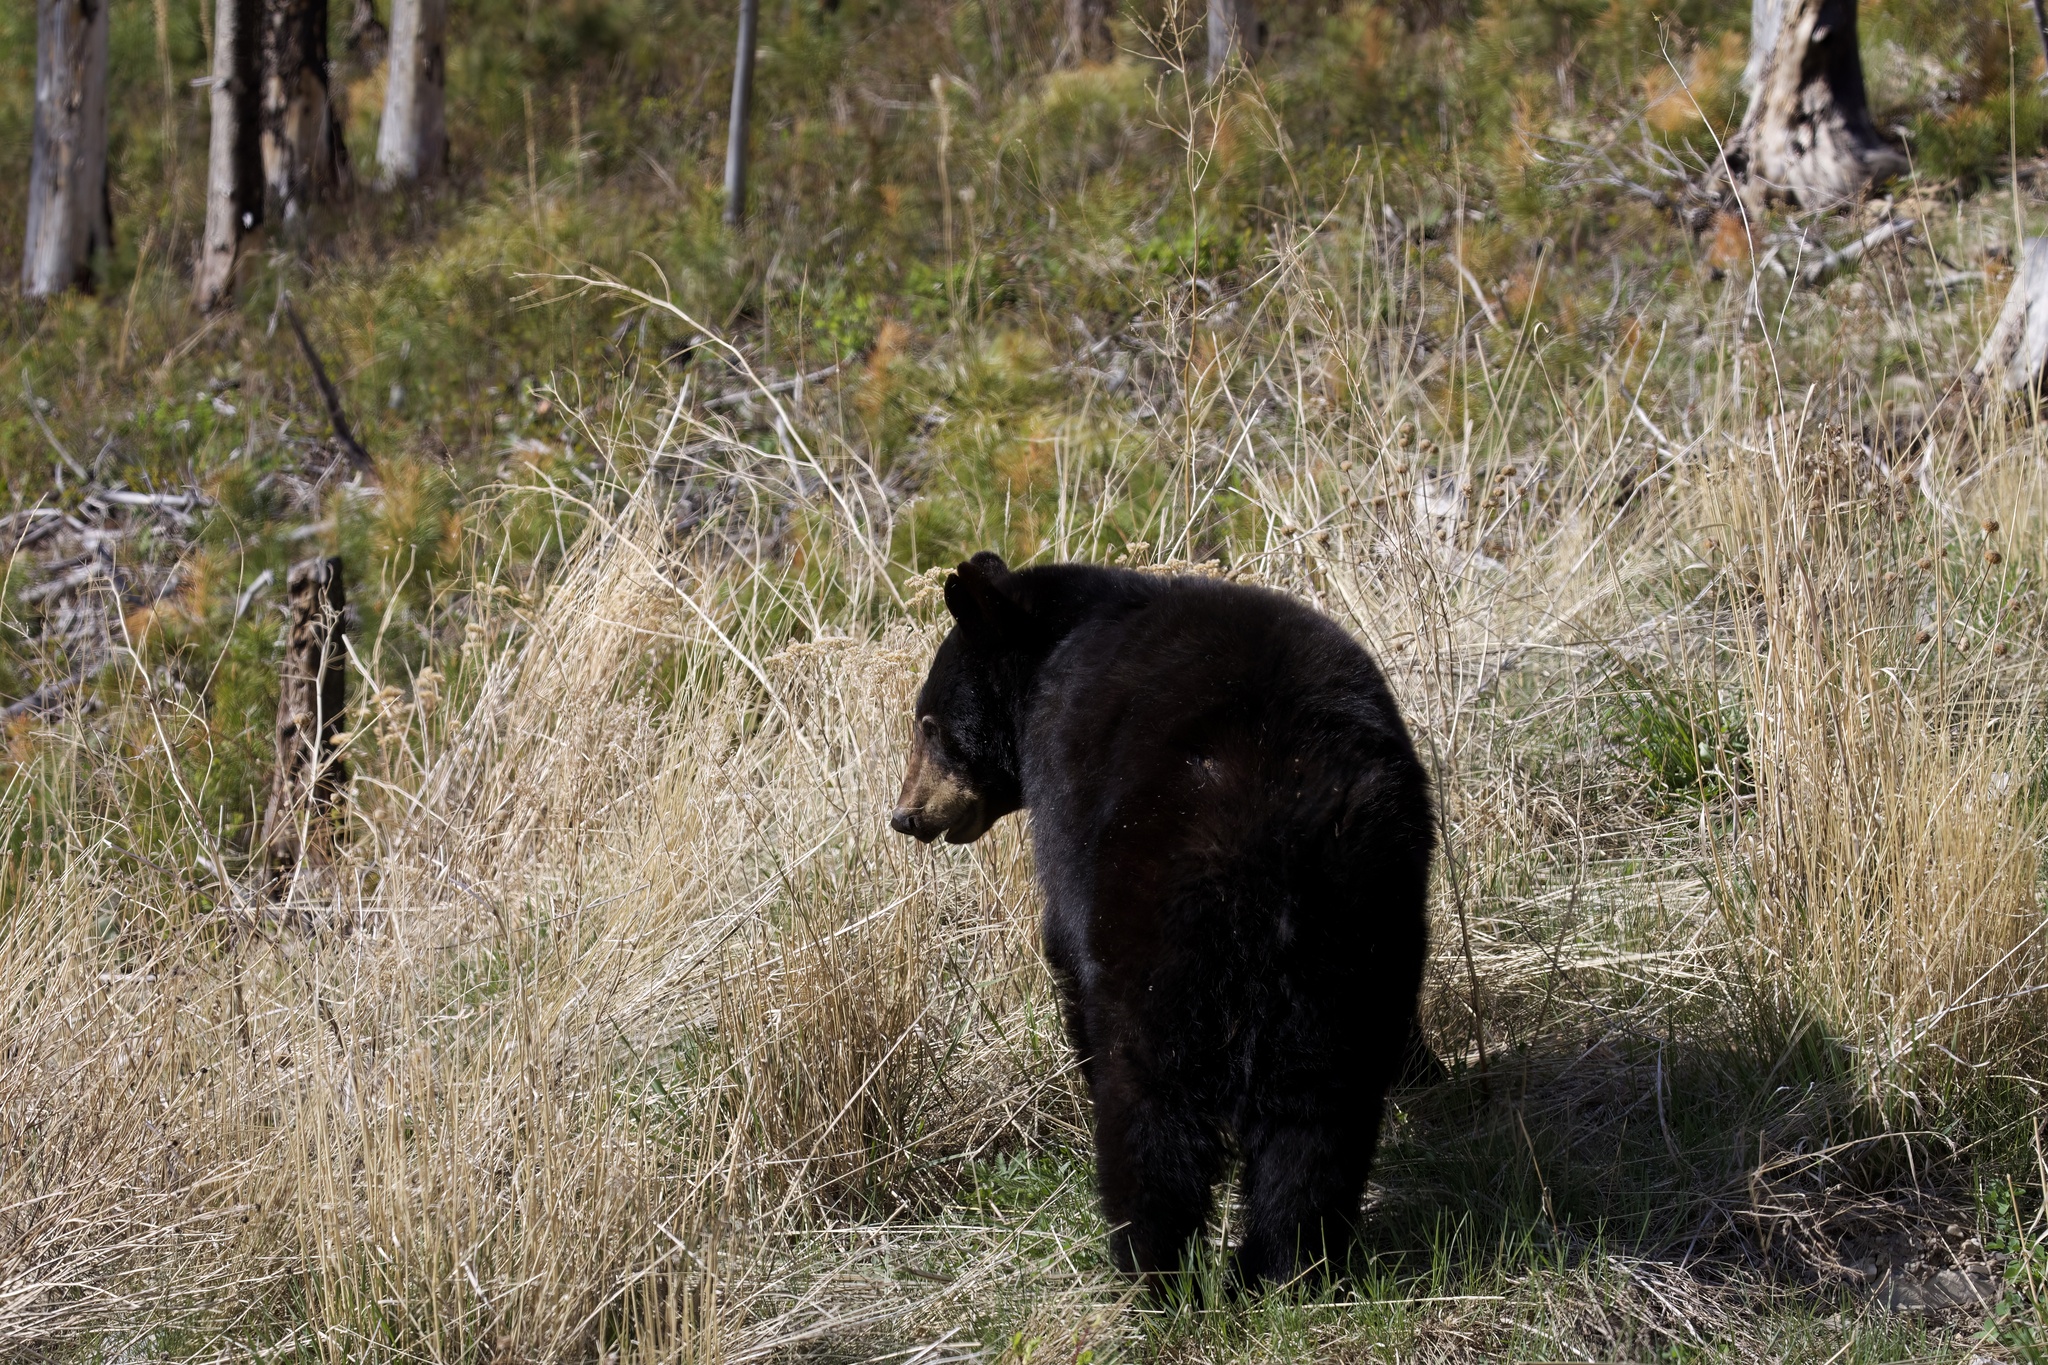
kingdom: Animalia
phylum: Chordata
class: Mammalia
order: Carnivora
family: Ursidae
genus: Ursus
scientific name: Ursus americanus
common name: American black bear
